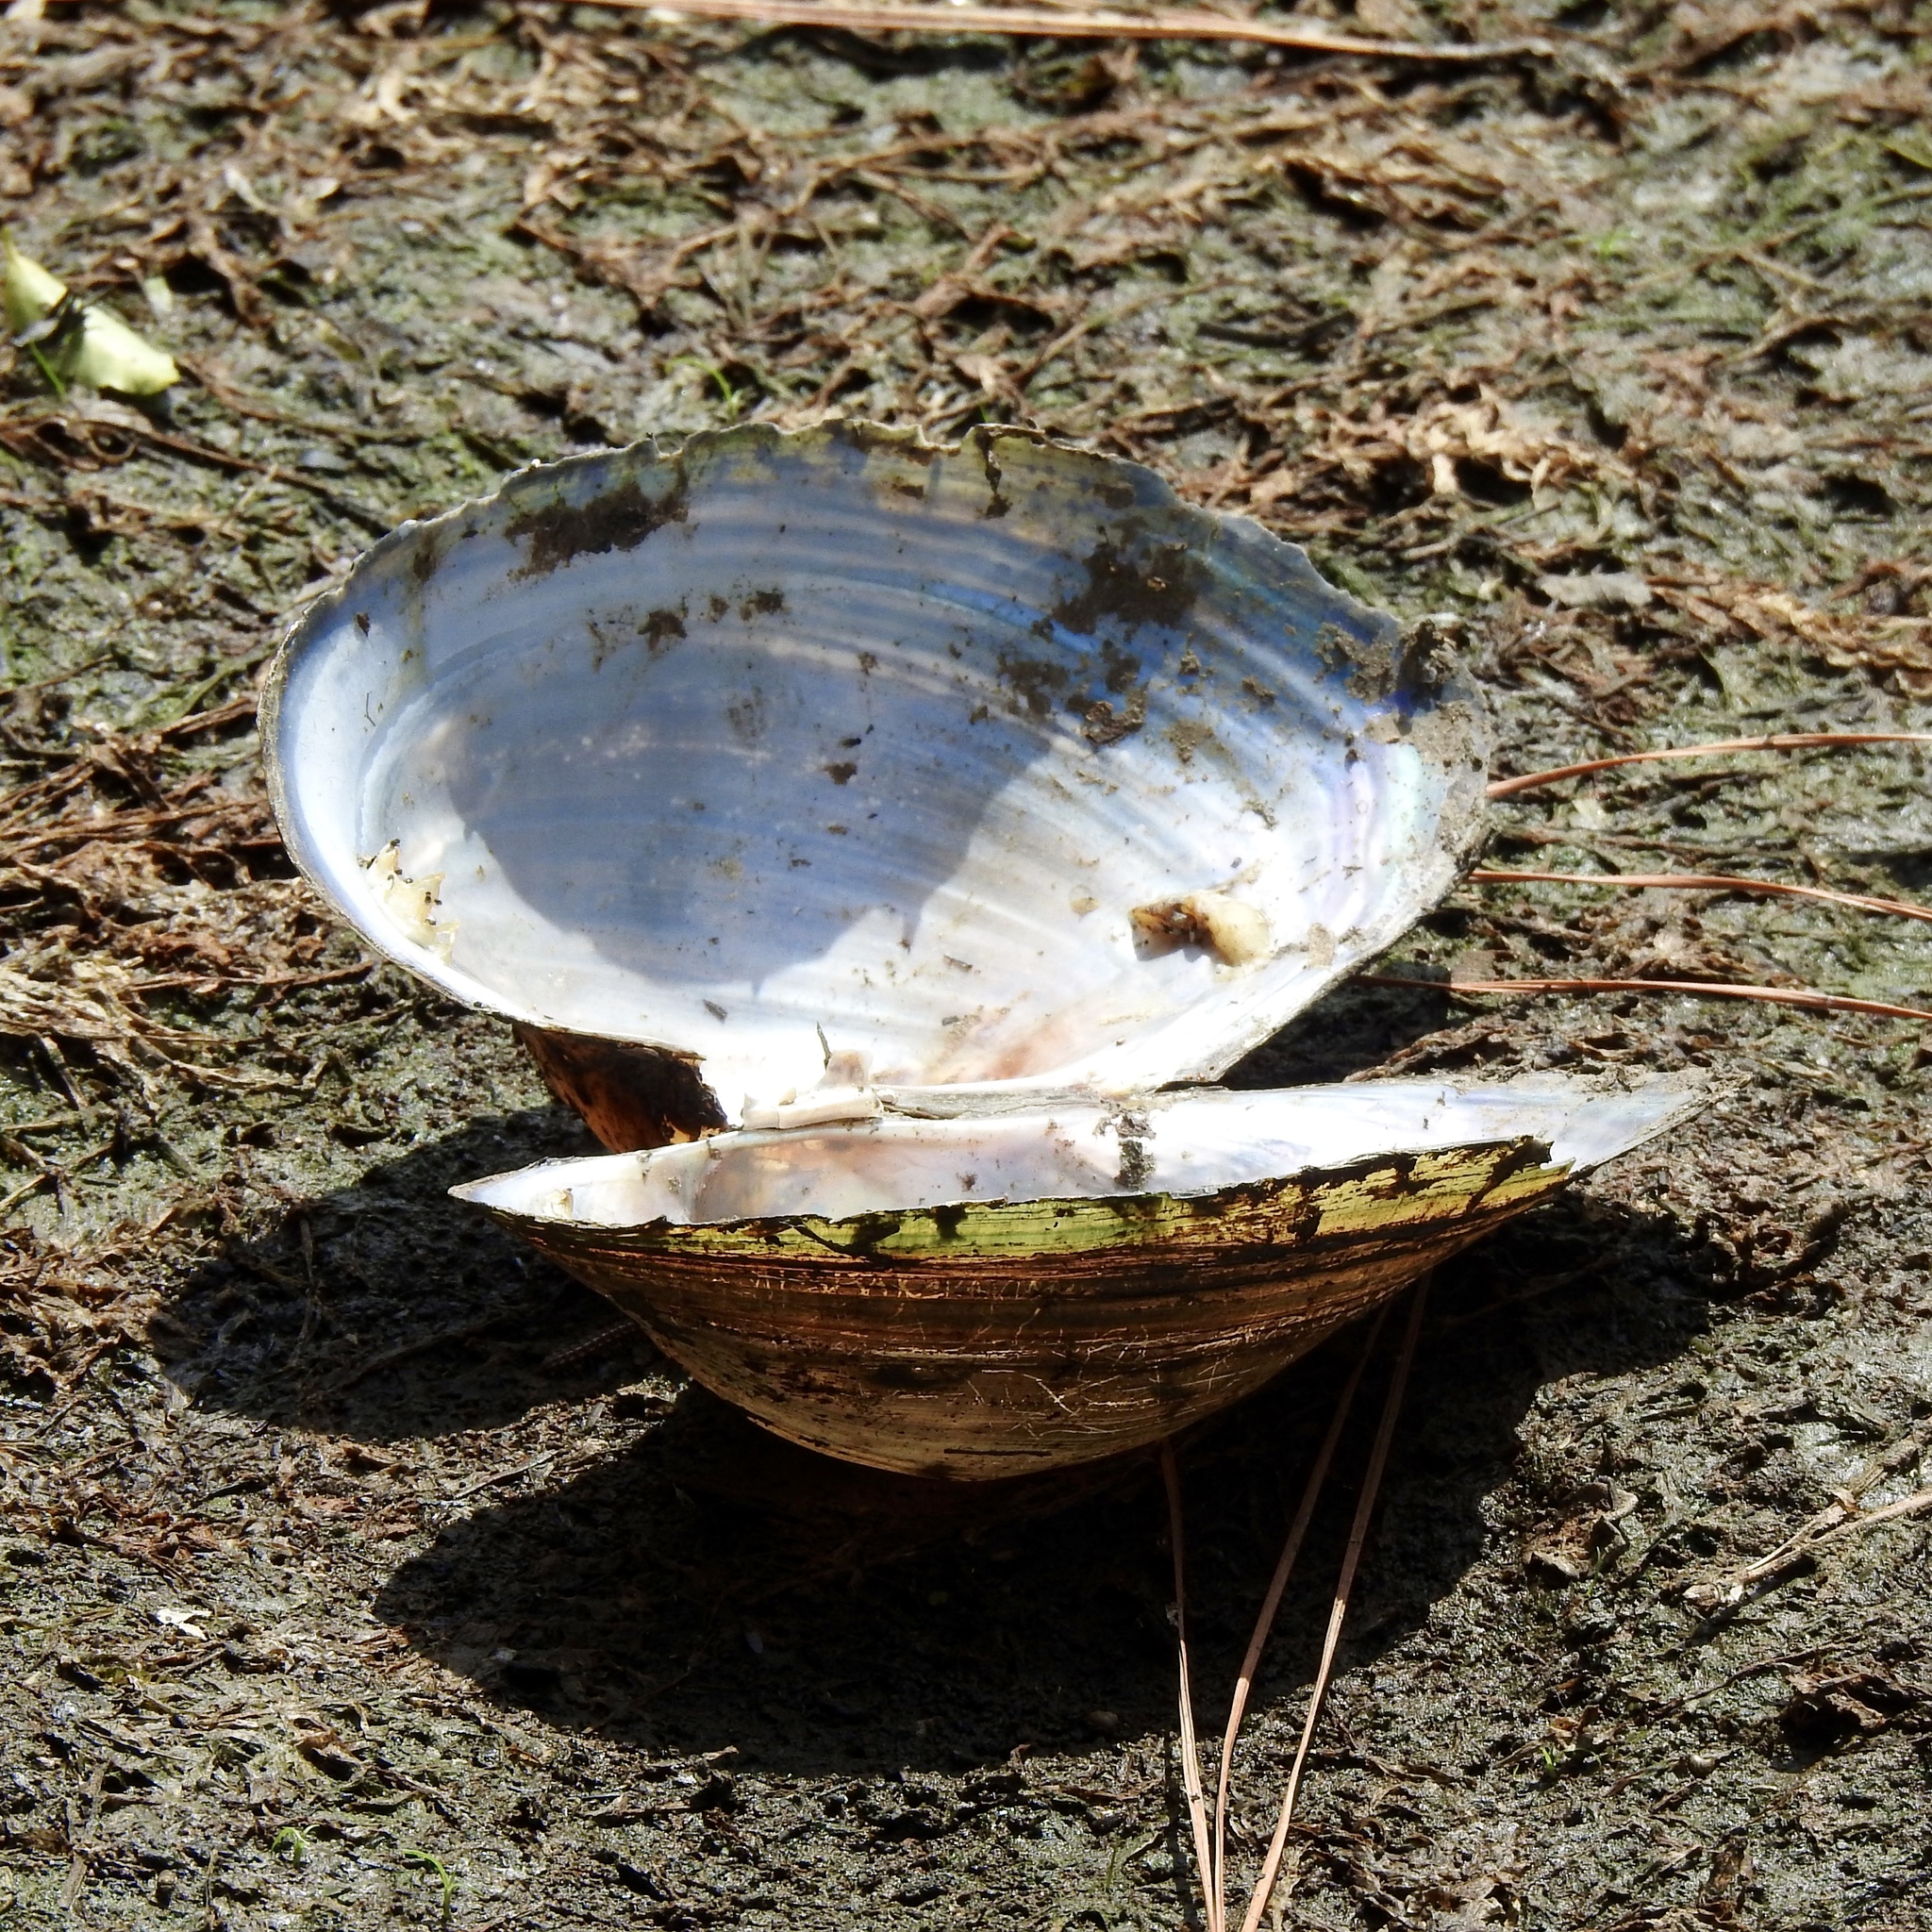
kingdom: Animalia
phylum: Mollusca
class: Bivalvia
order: Unionida
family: Unionidae
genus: Pyganodon
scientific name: Pyganodon grandis
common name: Giant floater
